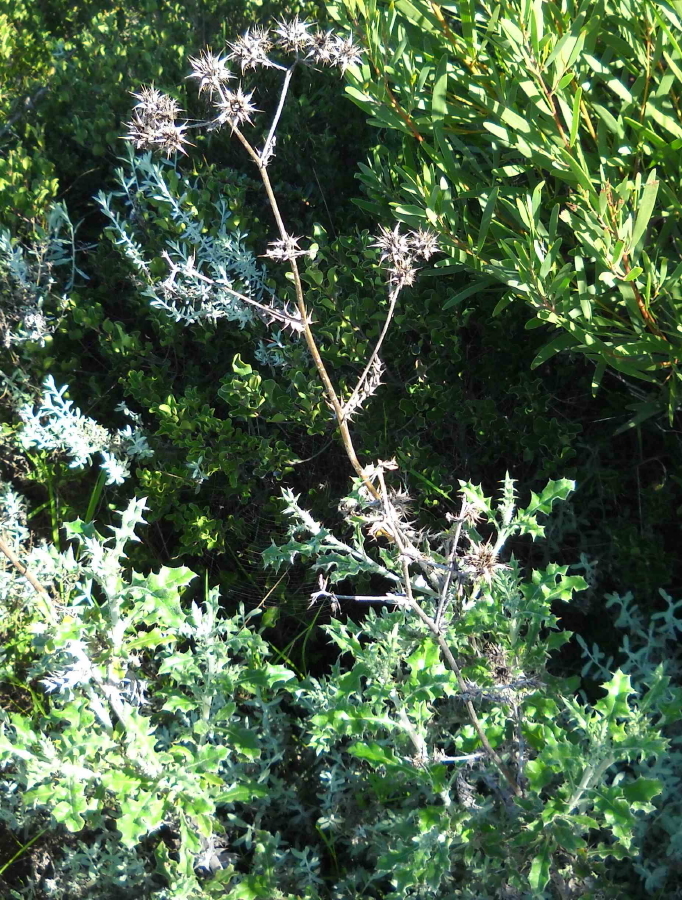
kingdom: Plantae
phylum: Tracheophyta
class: Magnoliopsida
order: Asterales
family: Asteraceae
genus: Berkheya
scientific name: Berkheya heterophylla
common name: Prickly gousblom
